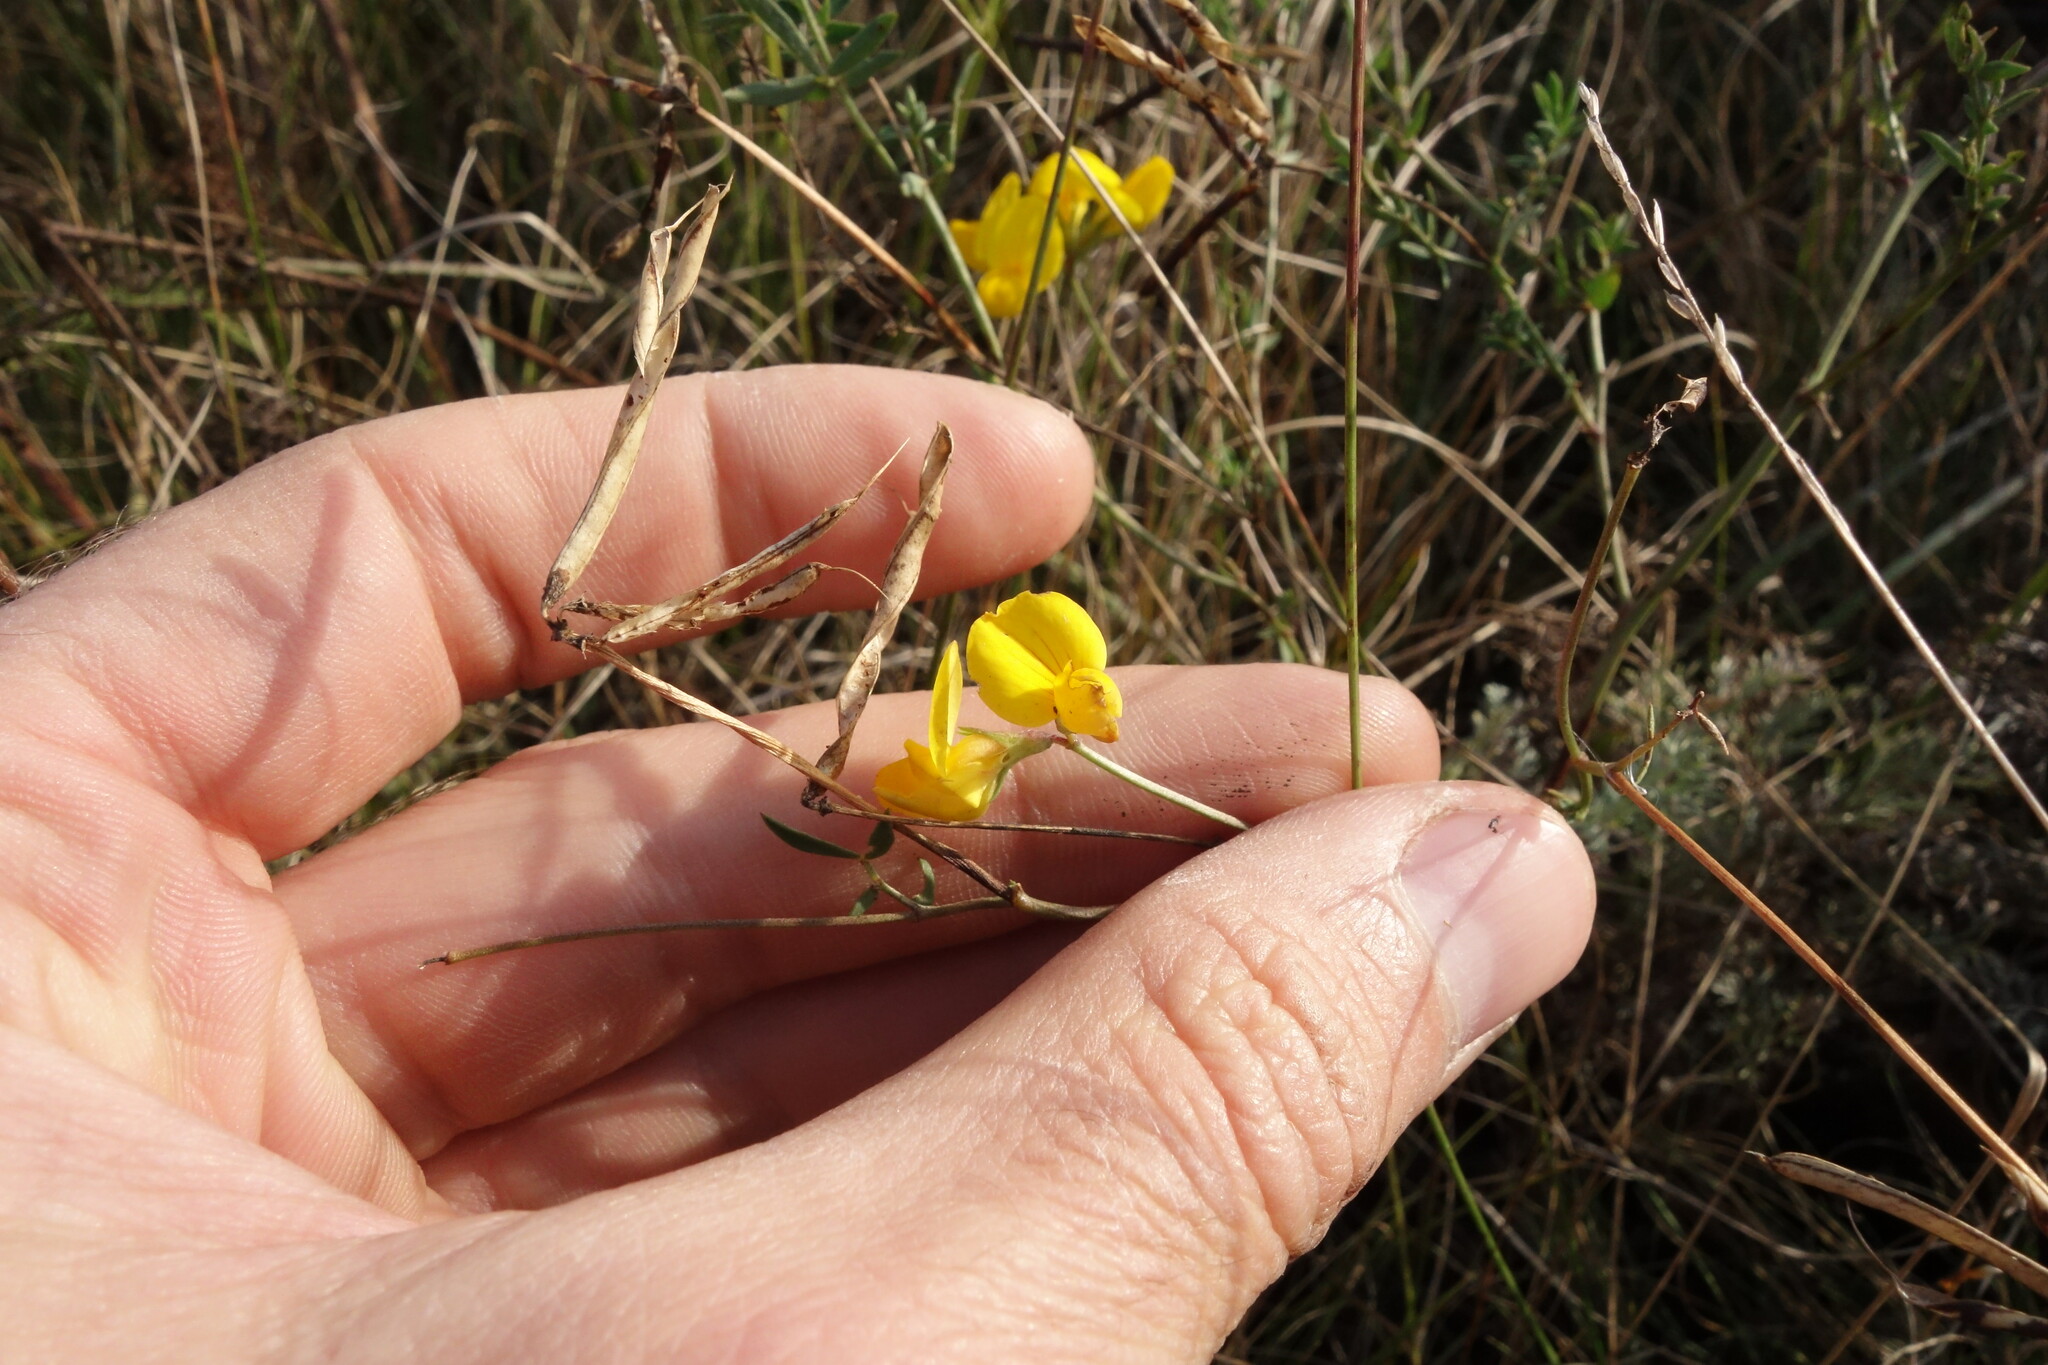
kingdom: Plantae
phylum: Tracheophyta
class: Magnoliopsida
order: Fabales
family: Fabaceae
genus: Lotus
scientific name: Lotus corniculatus
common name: Common bird's-foot-trefoil
